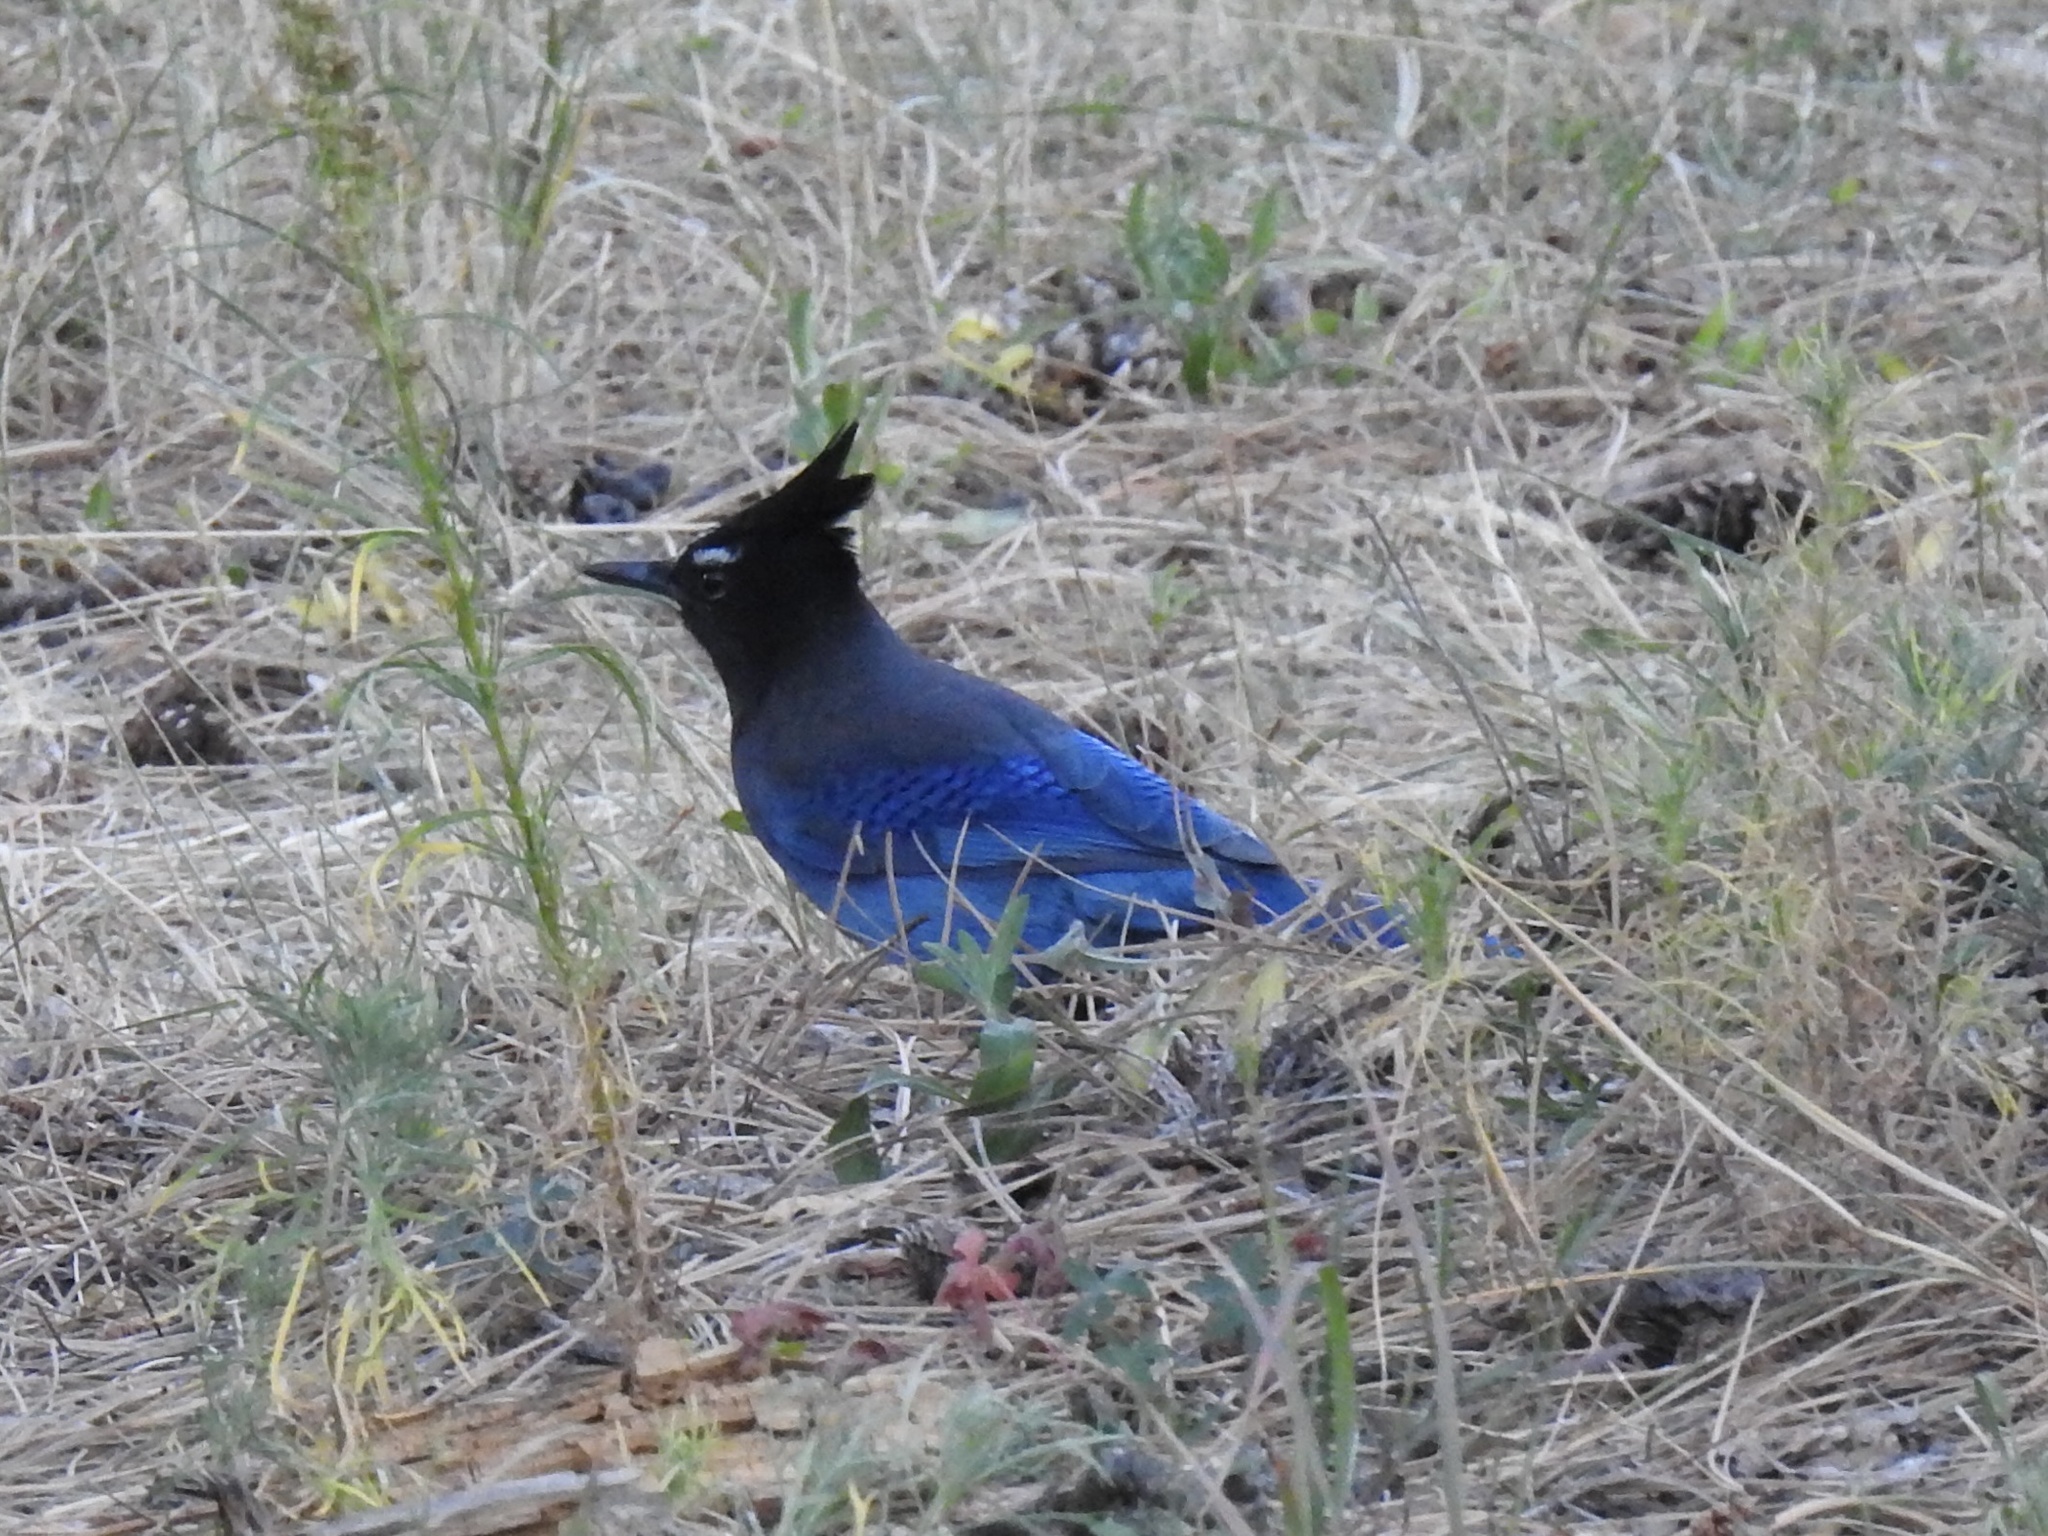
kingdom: Animalia
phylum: Chordata
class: Aves
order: Passeriformes
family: Corvidae
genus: Cyanocitta
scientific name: Cyanocitta stelleri
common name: Steller's jay
